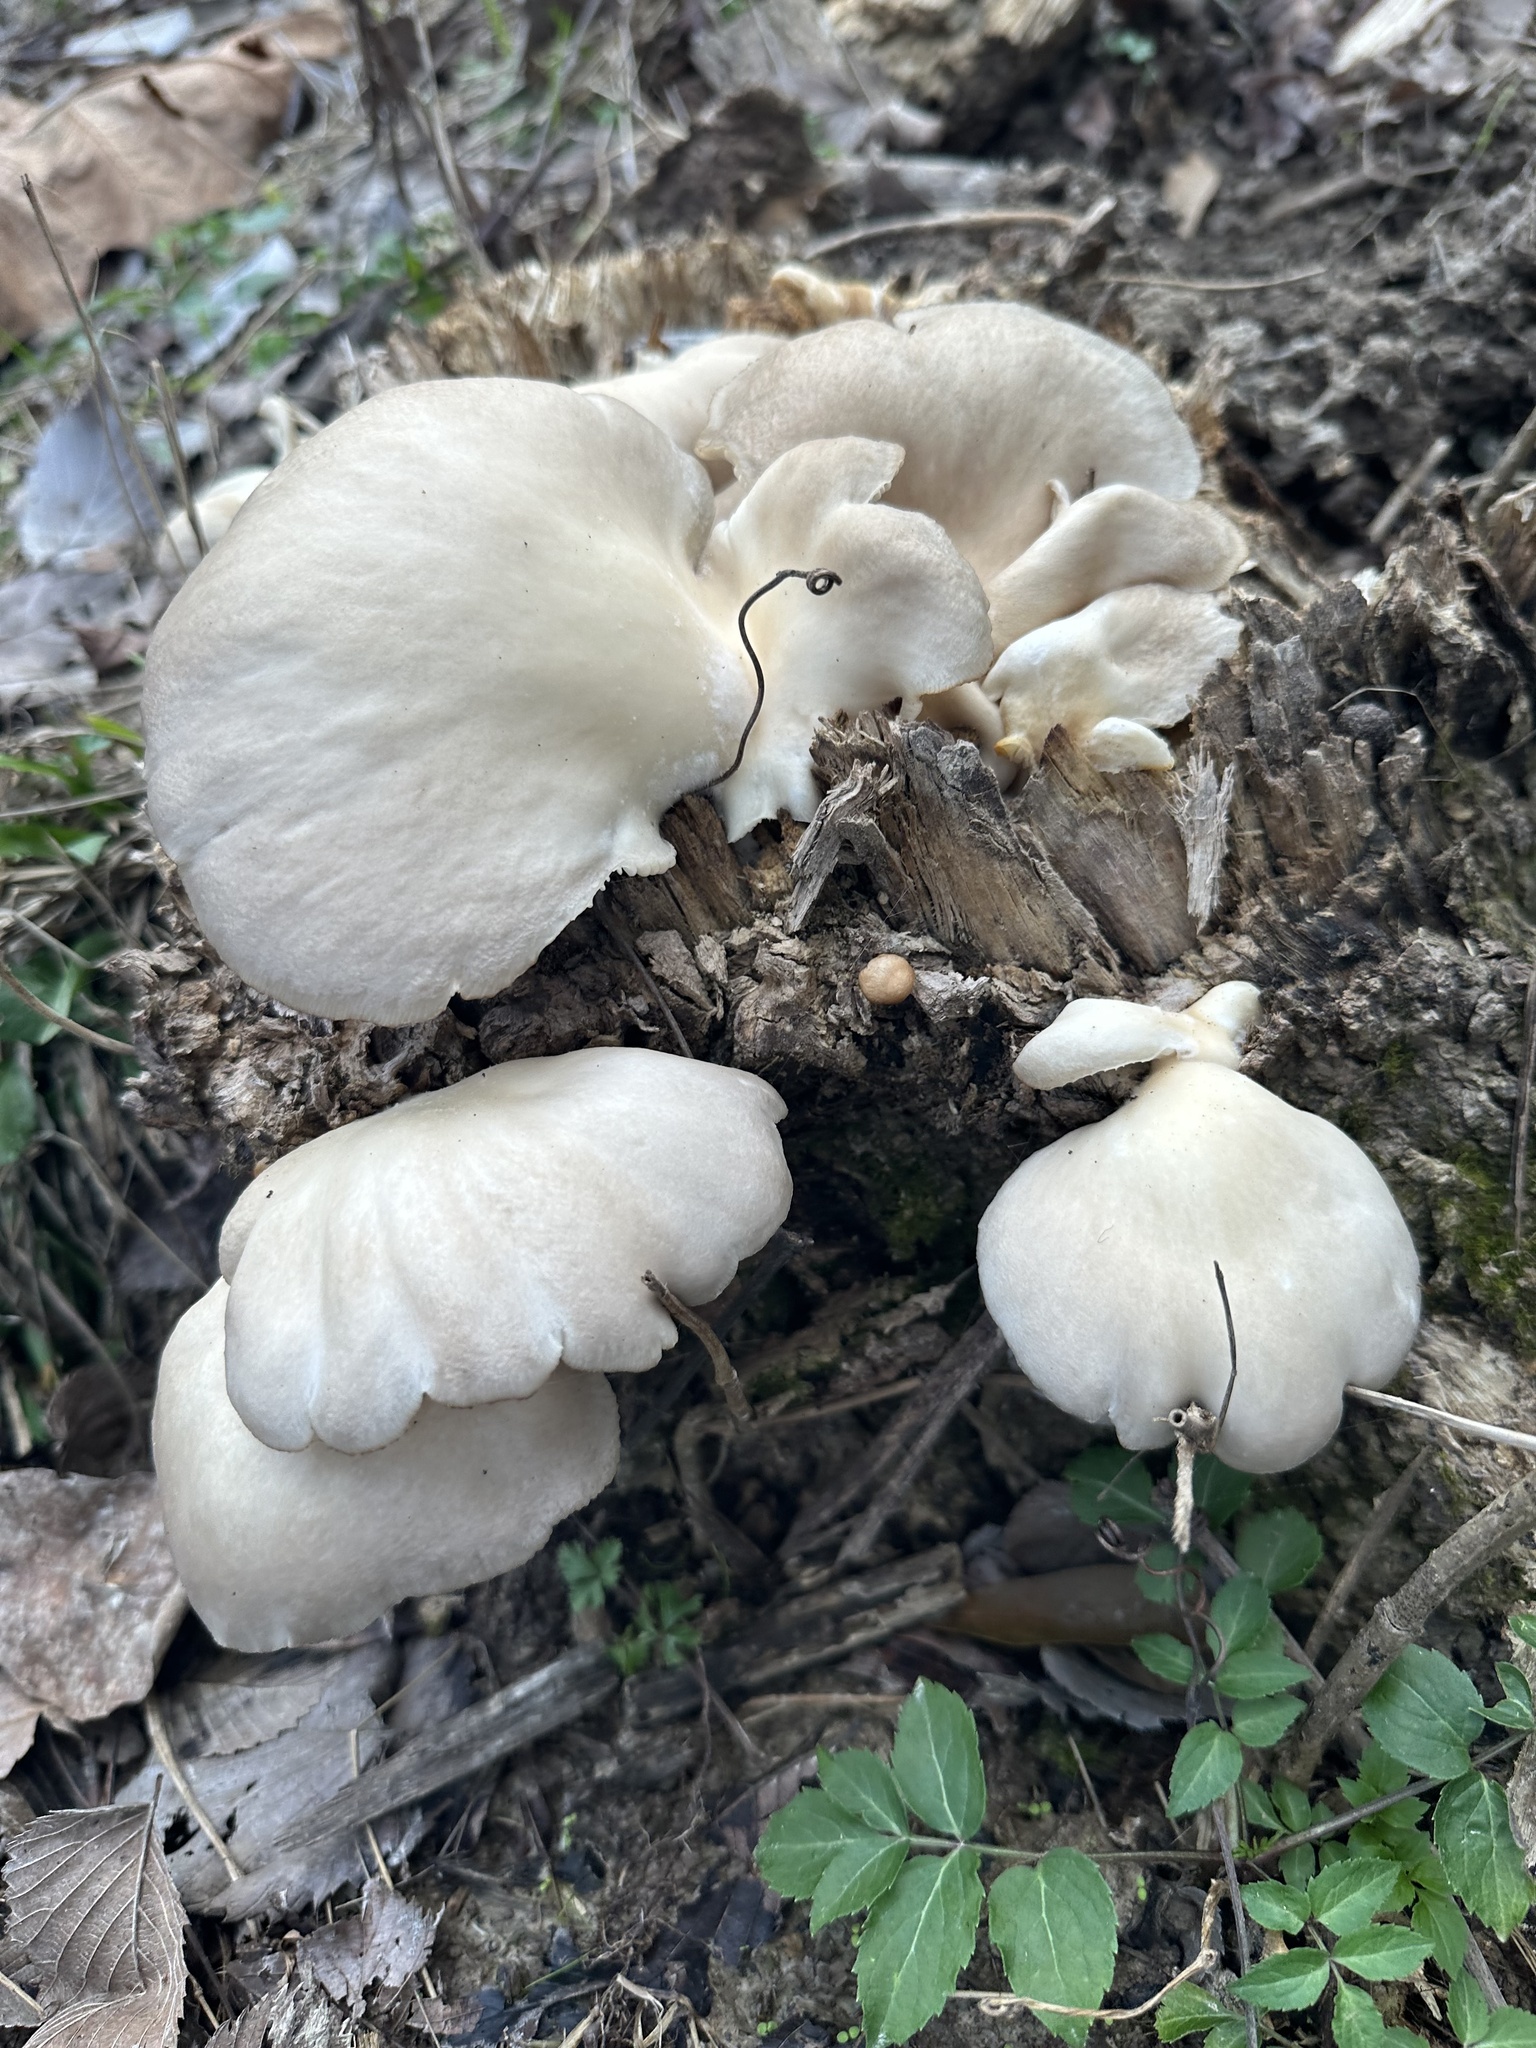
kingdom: Fungi
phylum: Basidiomycota
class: Agaricomycetes
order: Agaricales
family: Pleurotaceae
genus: Pleurotus
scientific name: Pleurotus pulmonarius
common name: Pale oyster
